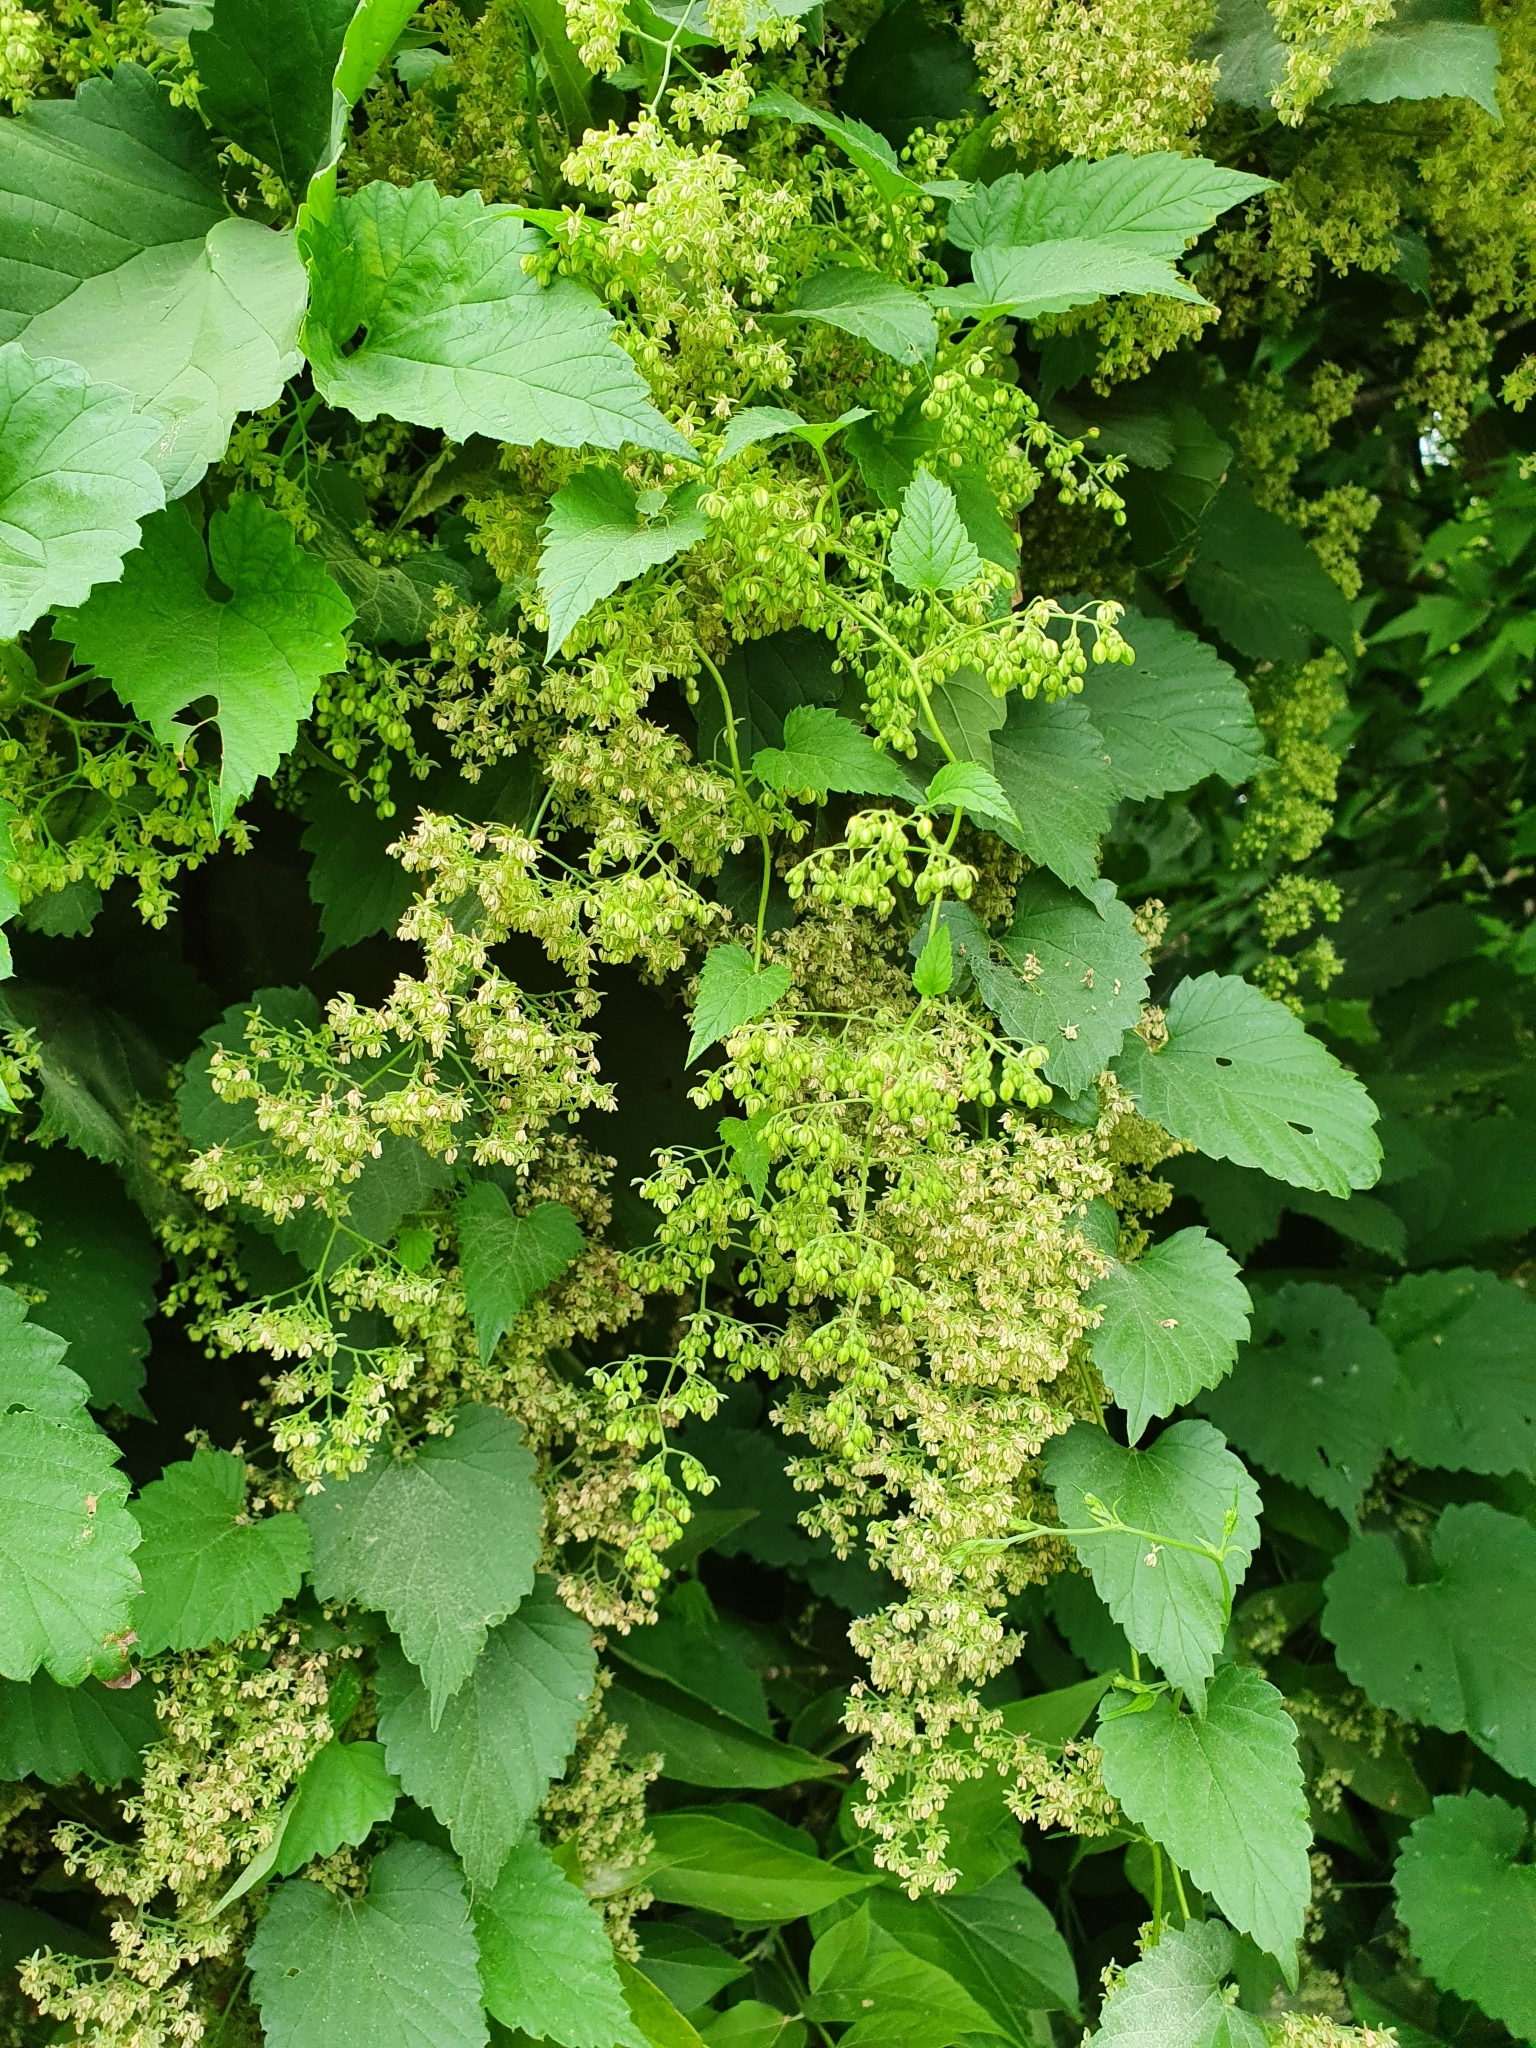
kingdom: Plantae
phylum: Tracheophyta
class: Magnoliopsida
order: Rosales
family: Cannabaceae
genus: Humulus
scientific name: Humulus lupulus
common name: Hop
